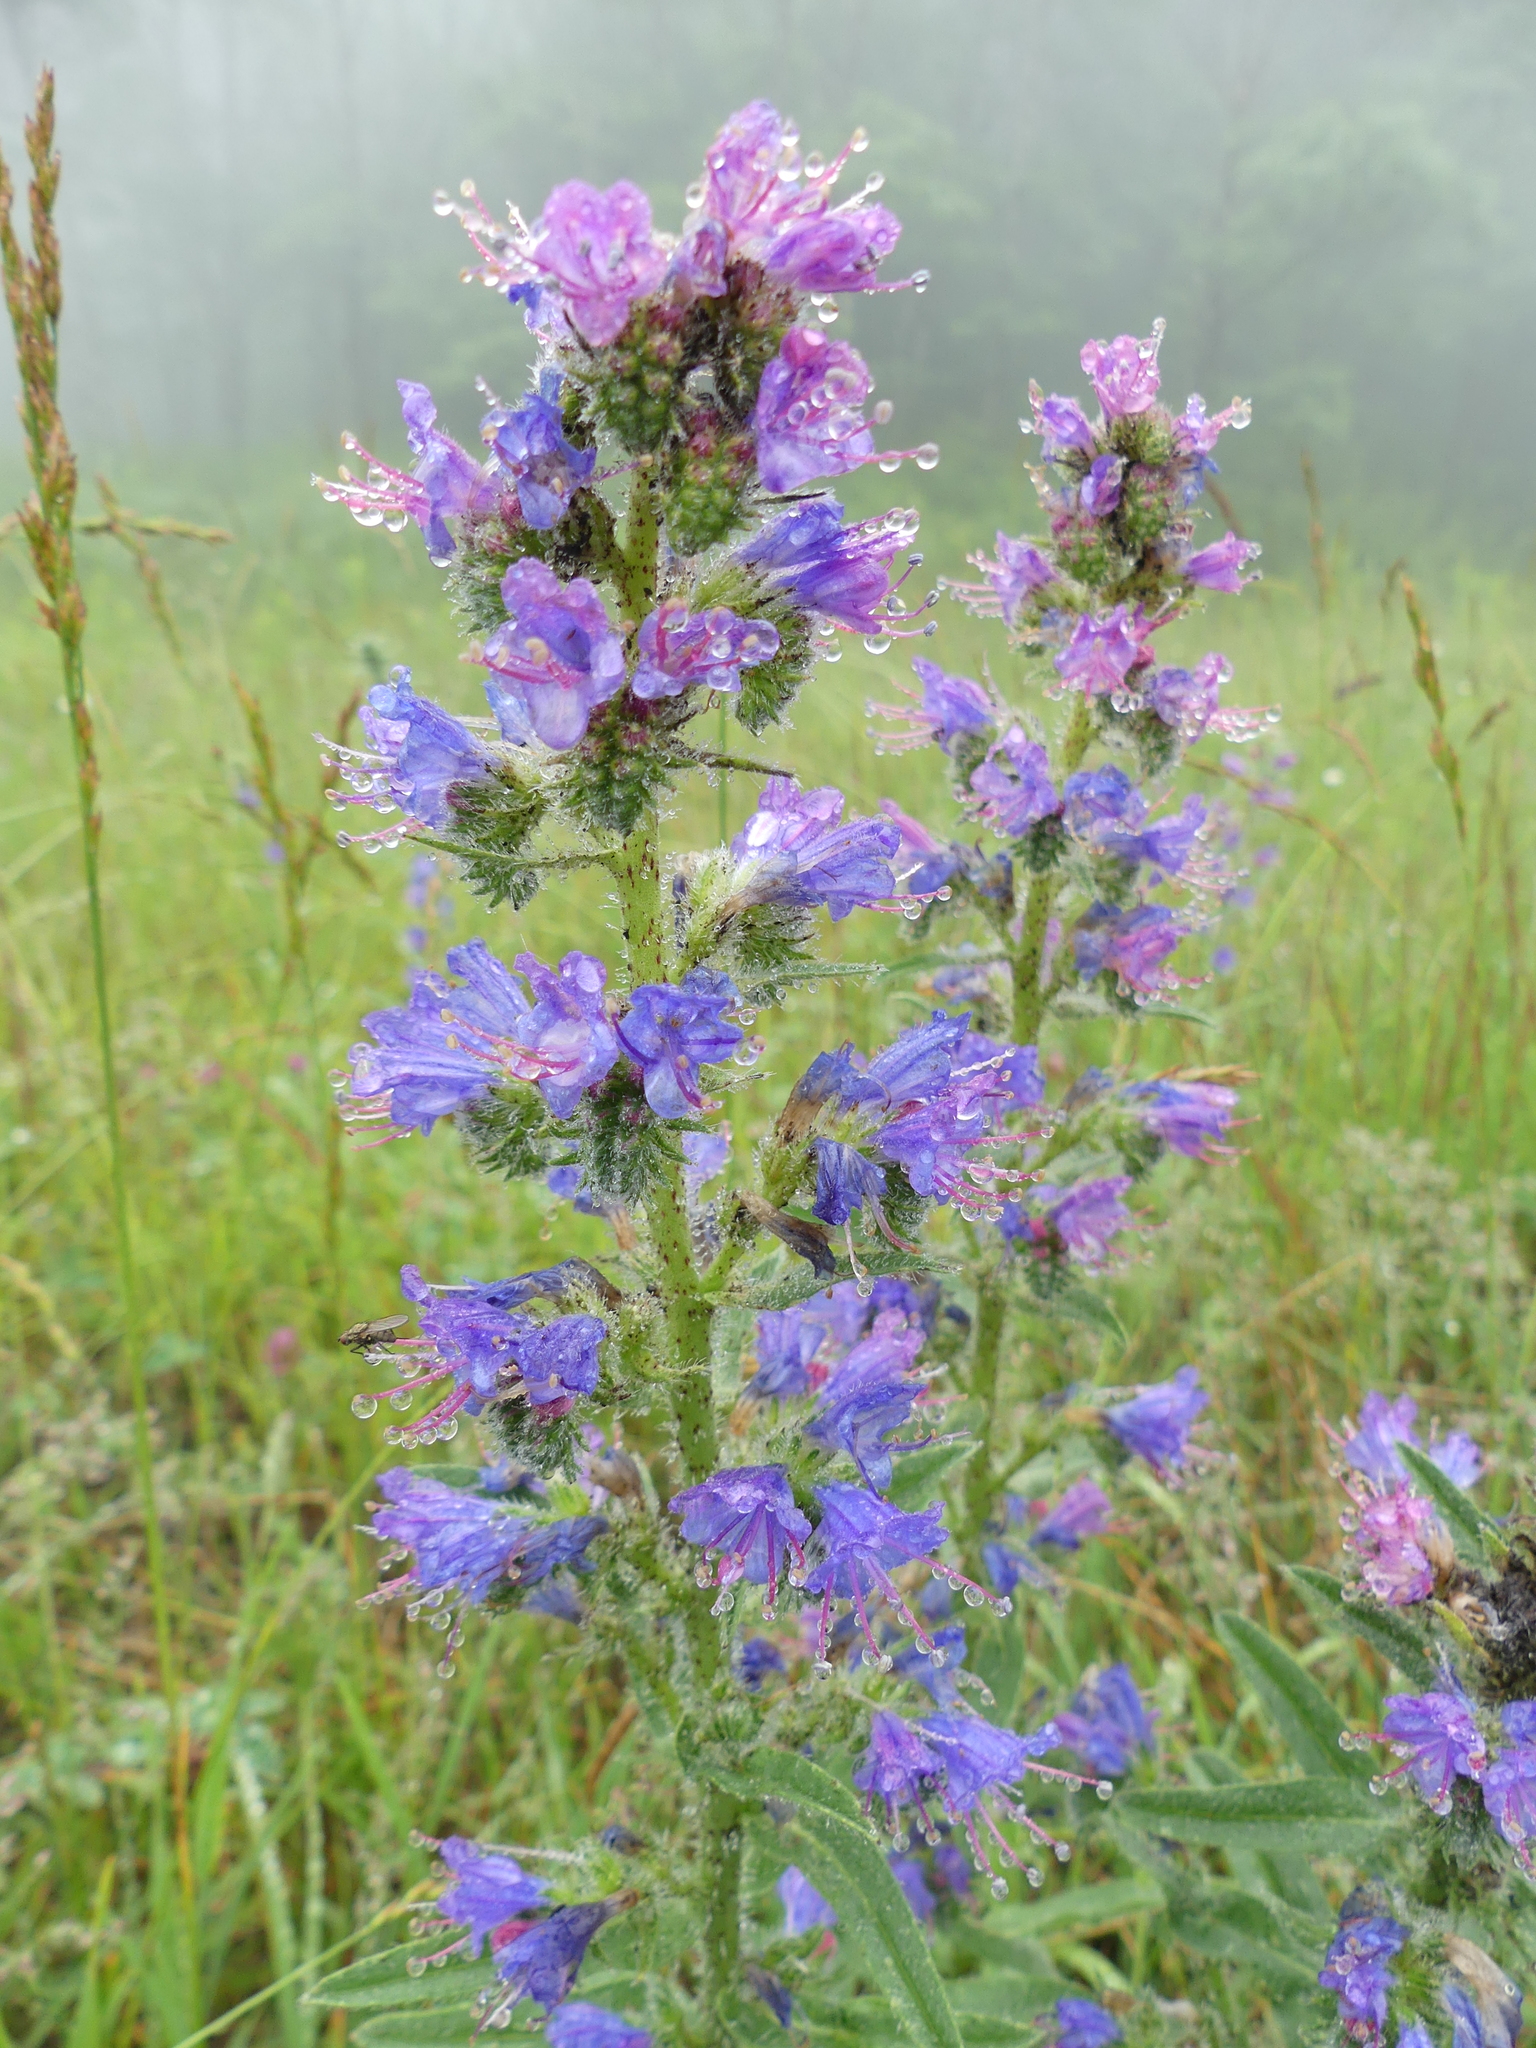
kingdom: Plantae
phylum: Tracheophyta
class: Magnoliopsida
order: Boraginales
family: Boraginaceae
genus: Echium
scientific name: Echium vulgare
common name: Common viper's bugloss
